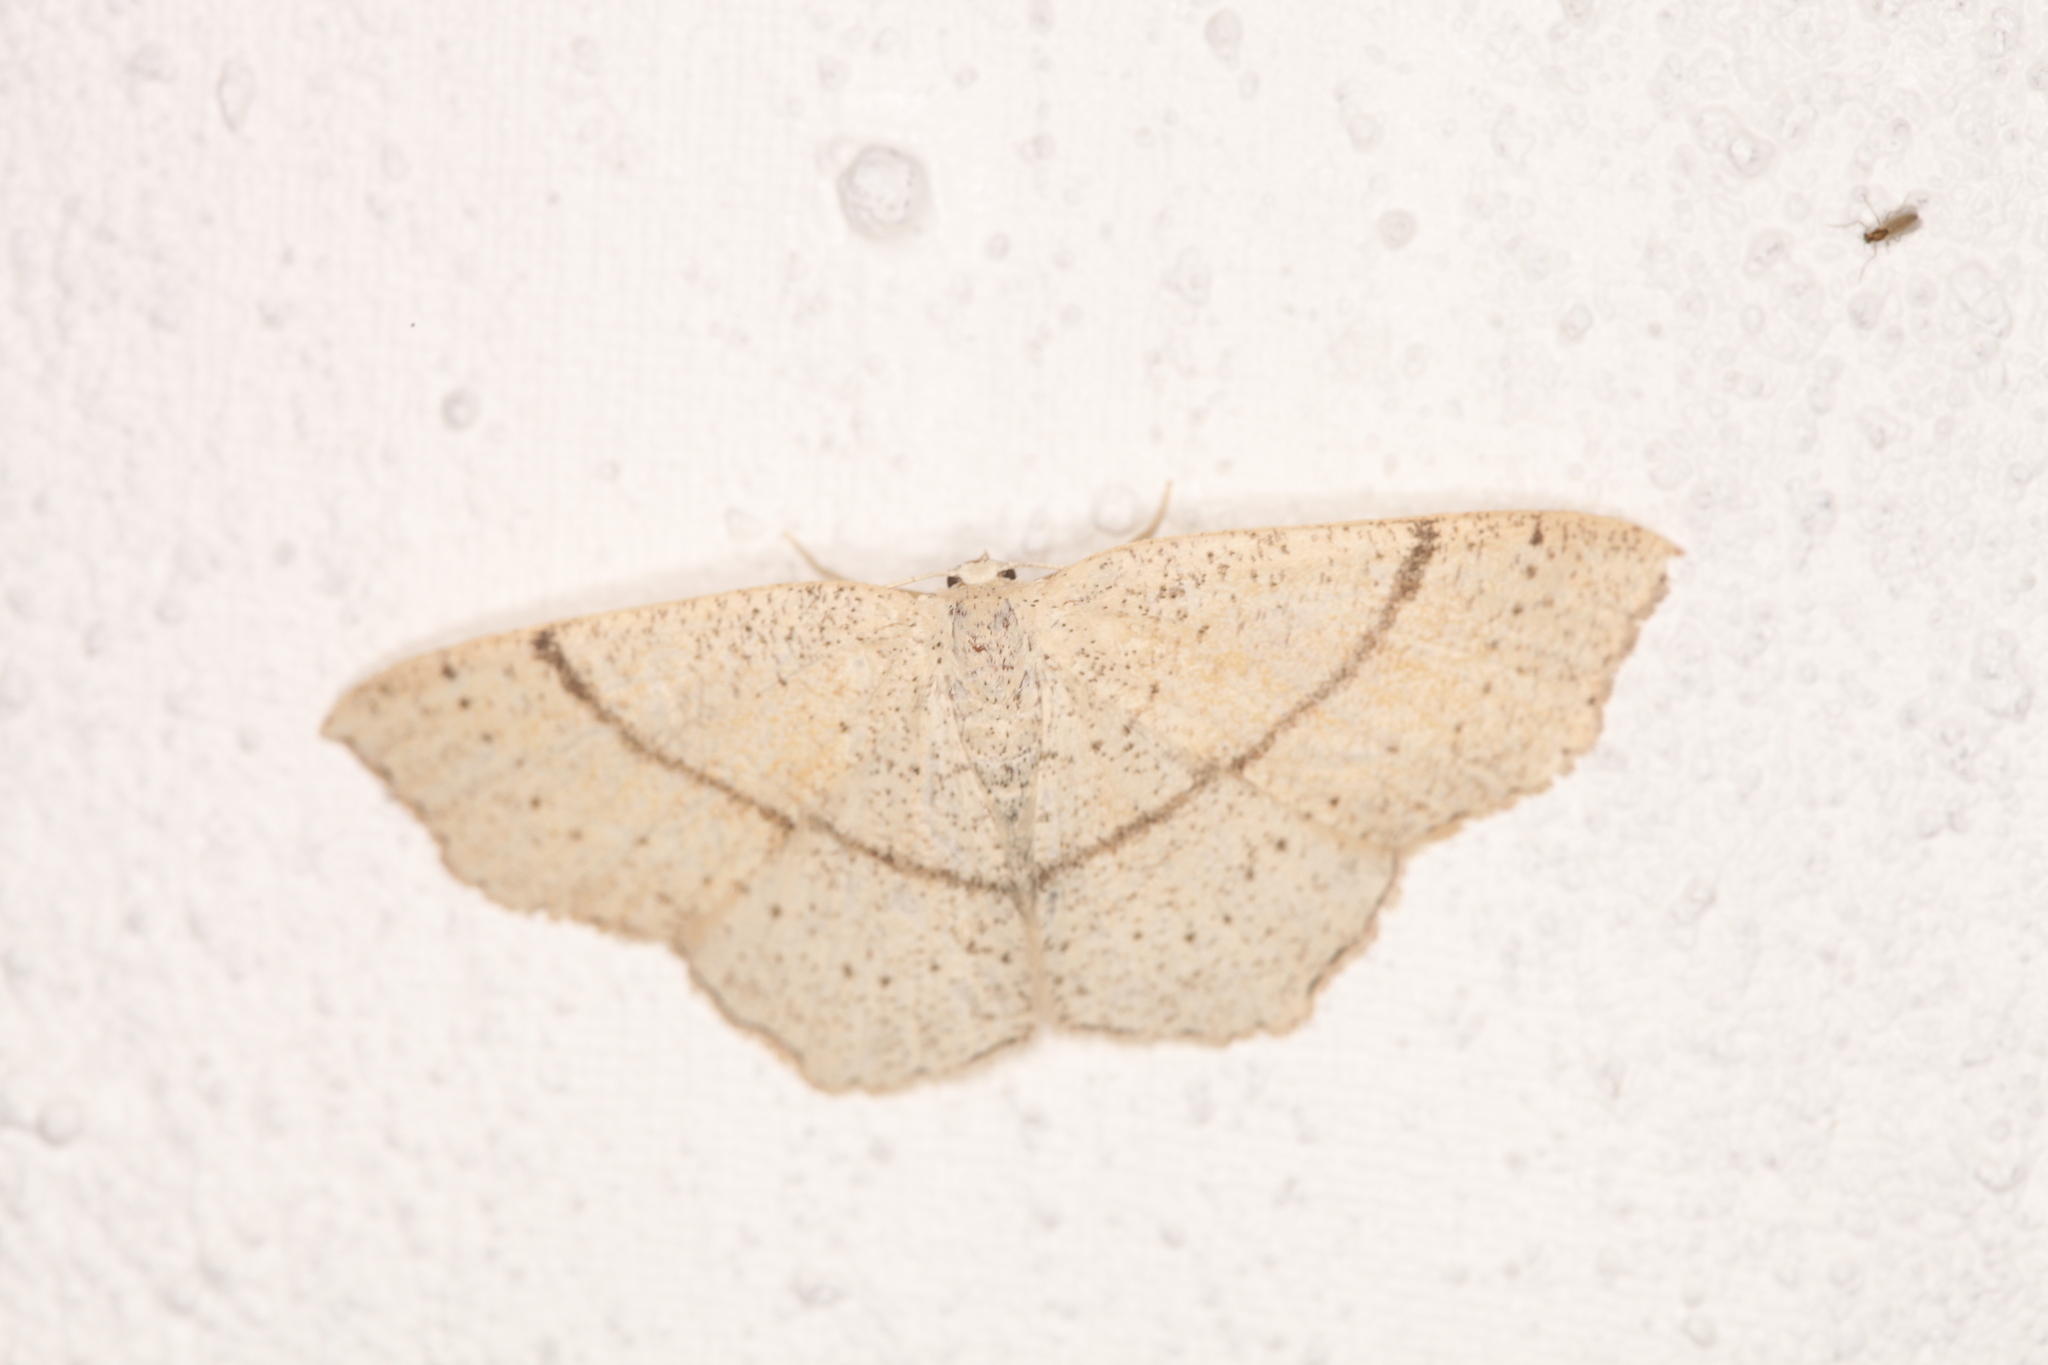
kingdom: Animalia
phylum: Arthropoda
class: Insecta
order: Lepidoptera
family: Geometridae
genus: Cyclophora
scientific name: Cyclophora punctaria
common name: Maiden's blush
